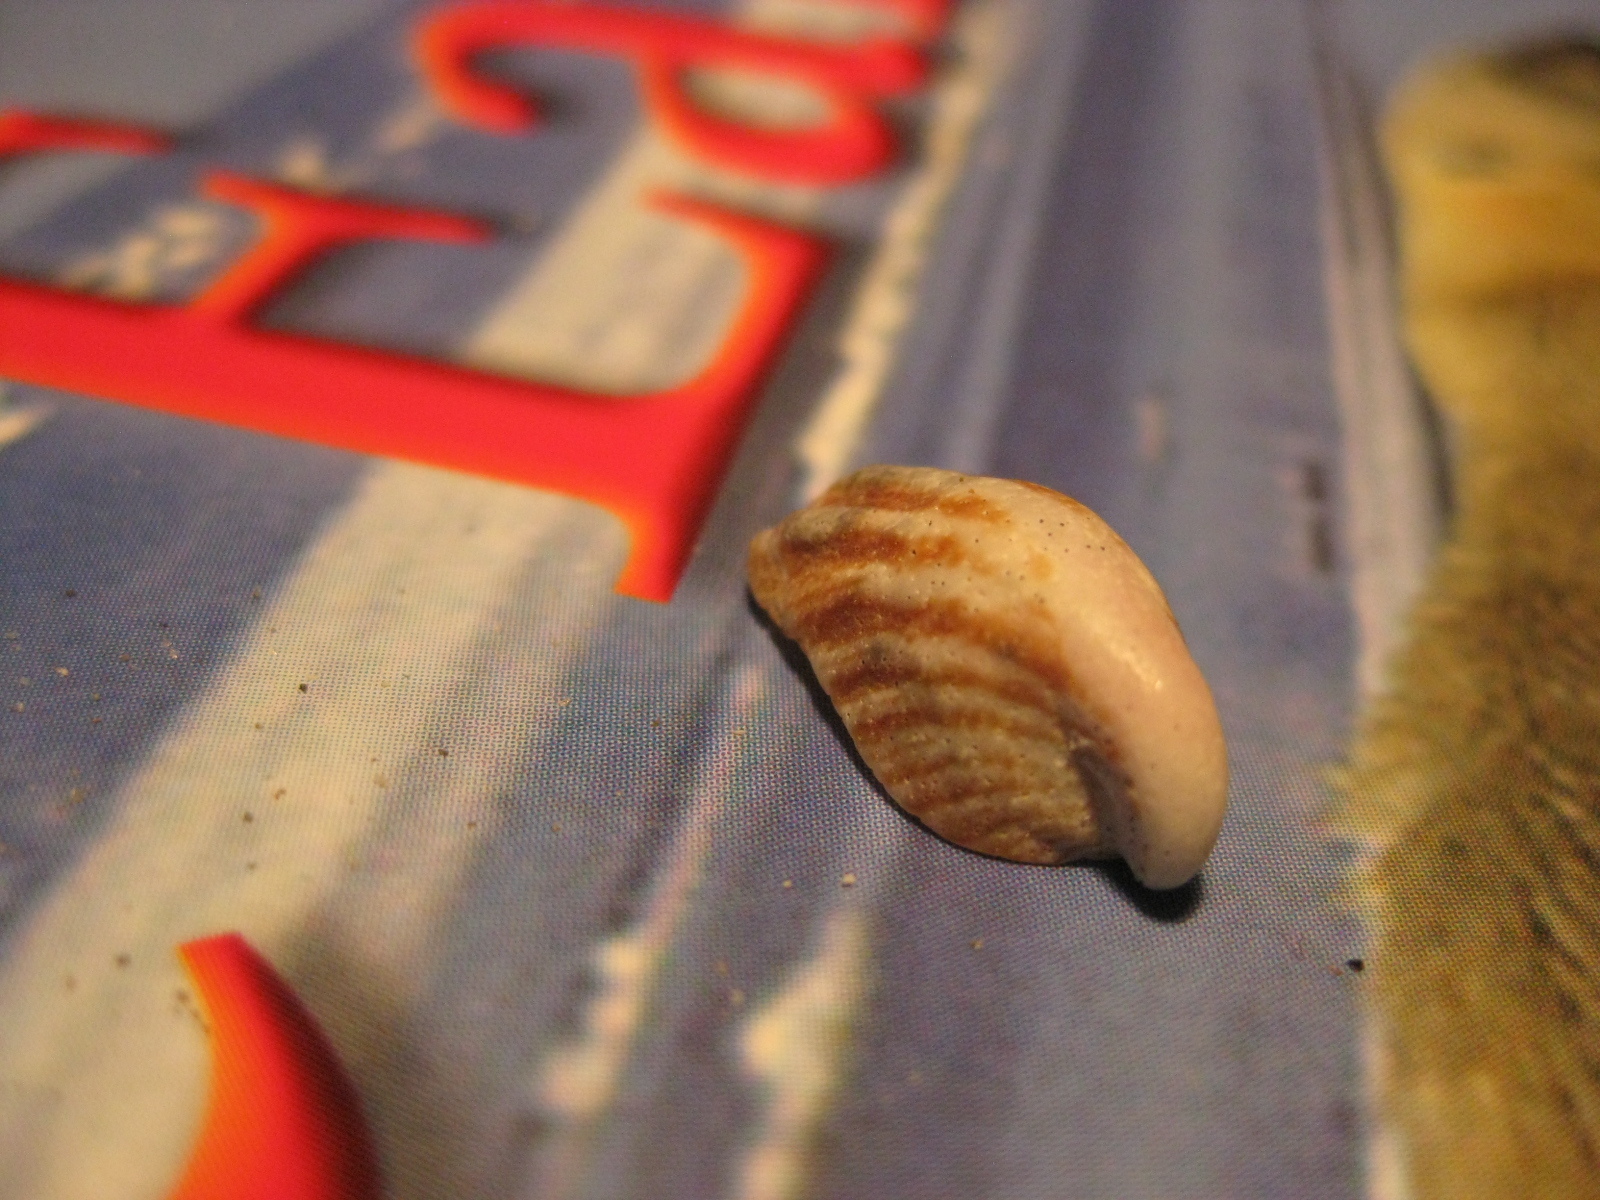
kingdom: Animalia
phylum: Mollusca
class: Gastropoda
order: Littorinimorpha
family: Calyptraeidae
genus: Maoricrypta
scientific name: Maoricrypta costata
